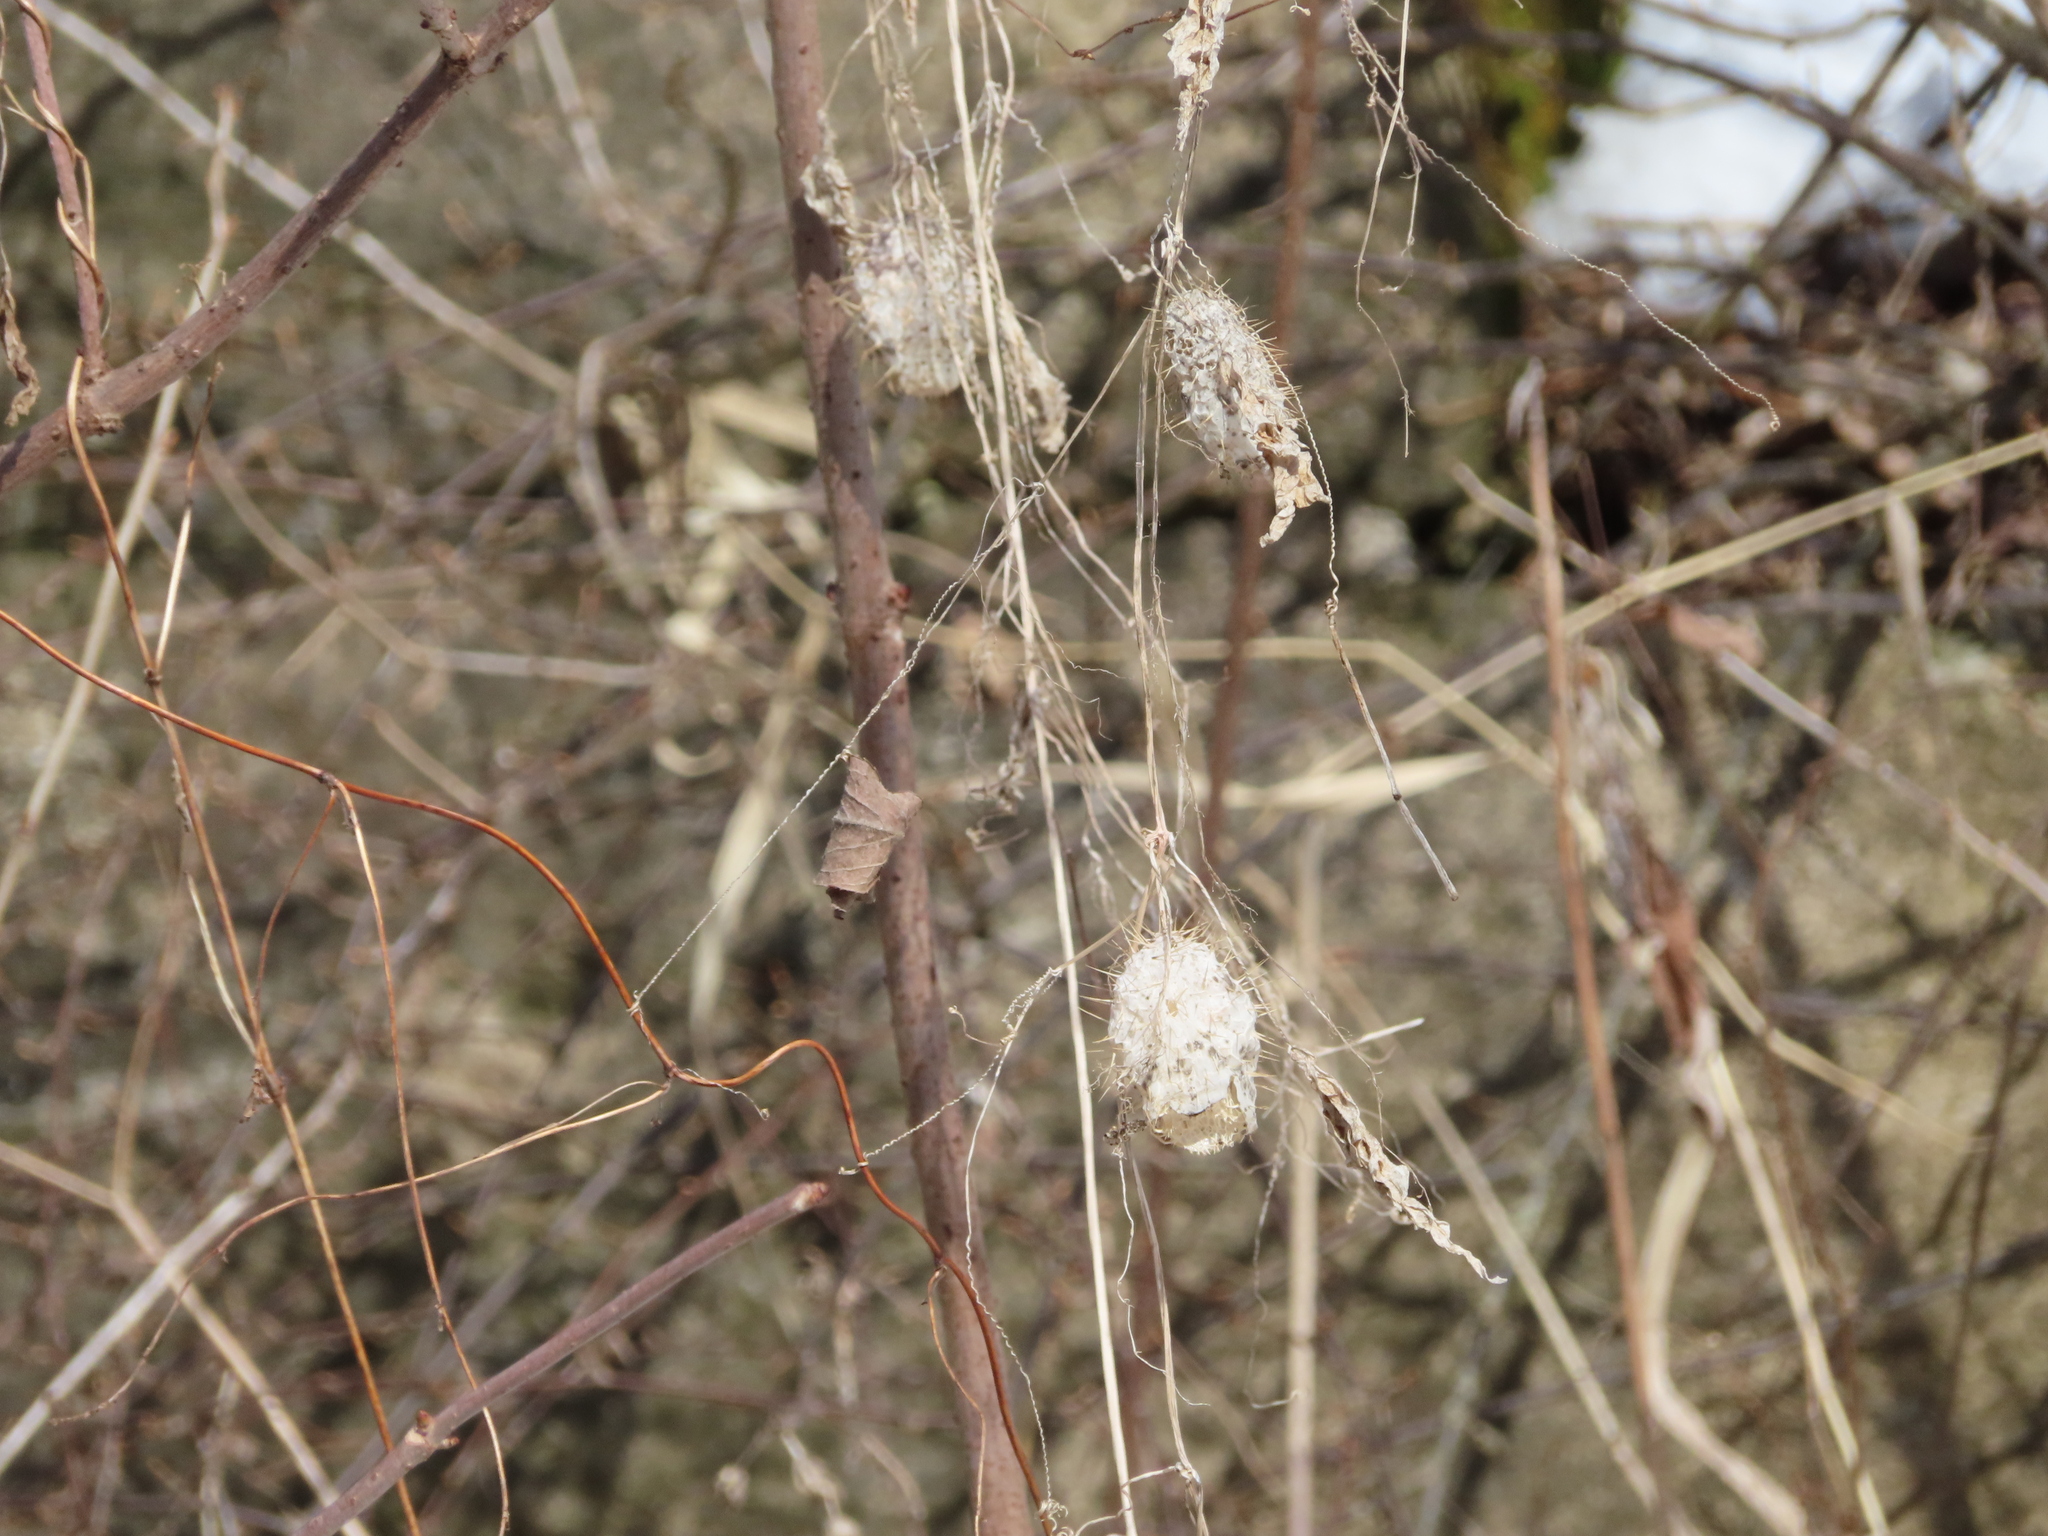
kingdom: Plantae
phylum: Tracheophyta
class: Magnoliopsida
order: Cucurbitales
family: Cucurbitaceae
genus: Echinocystis
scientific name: Echinocystis lobata
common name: Wild cucumber
